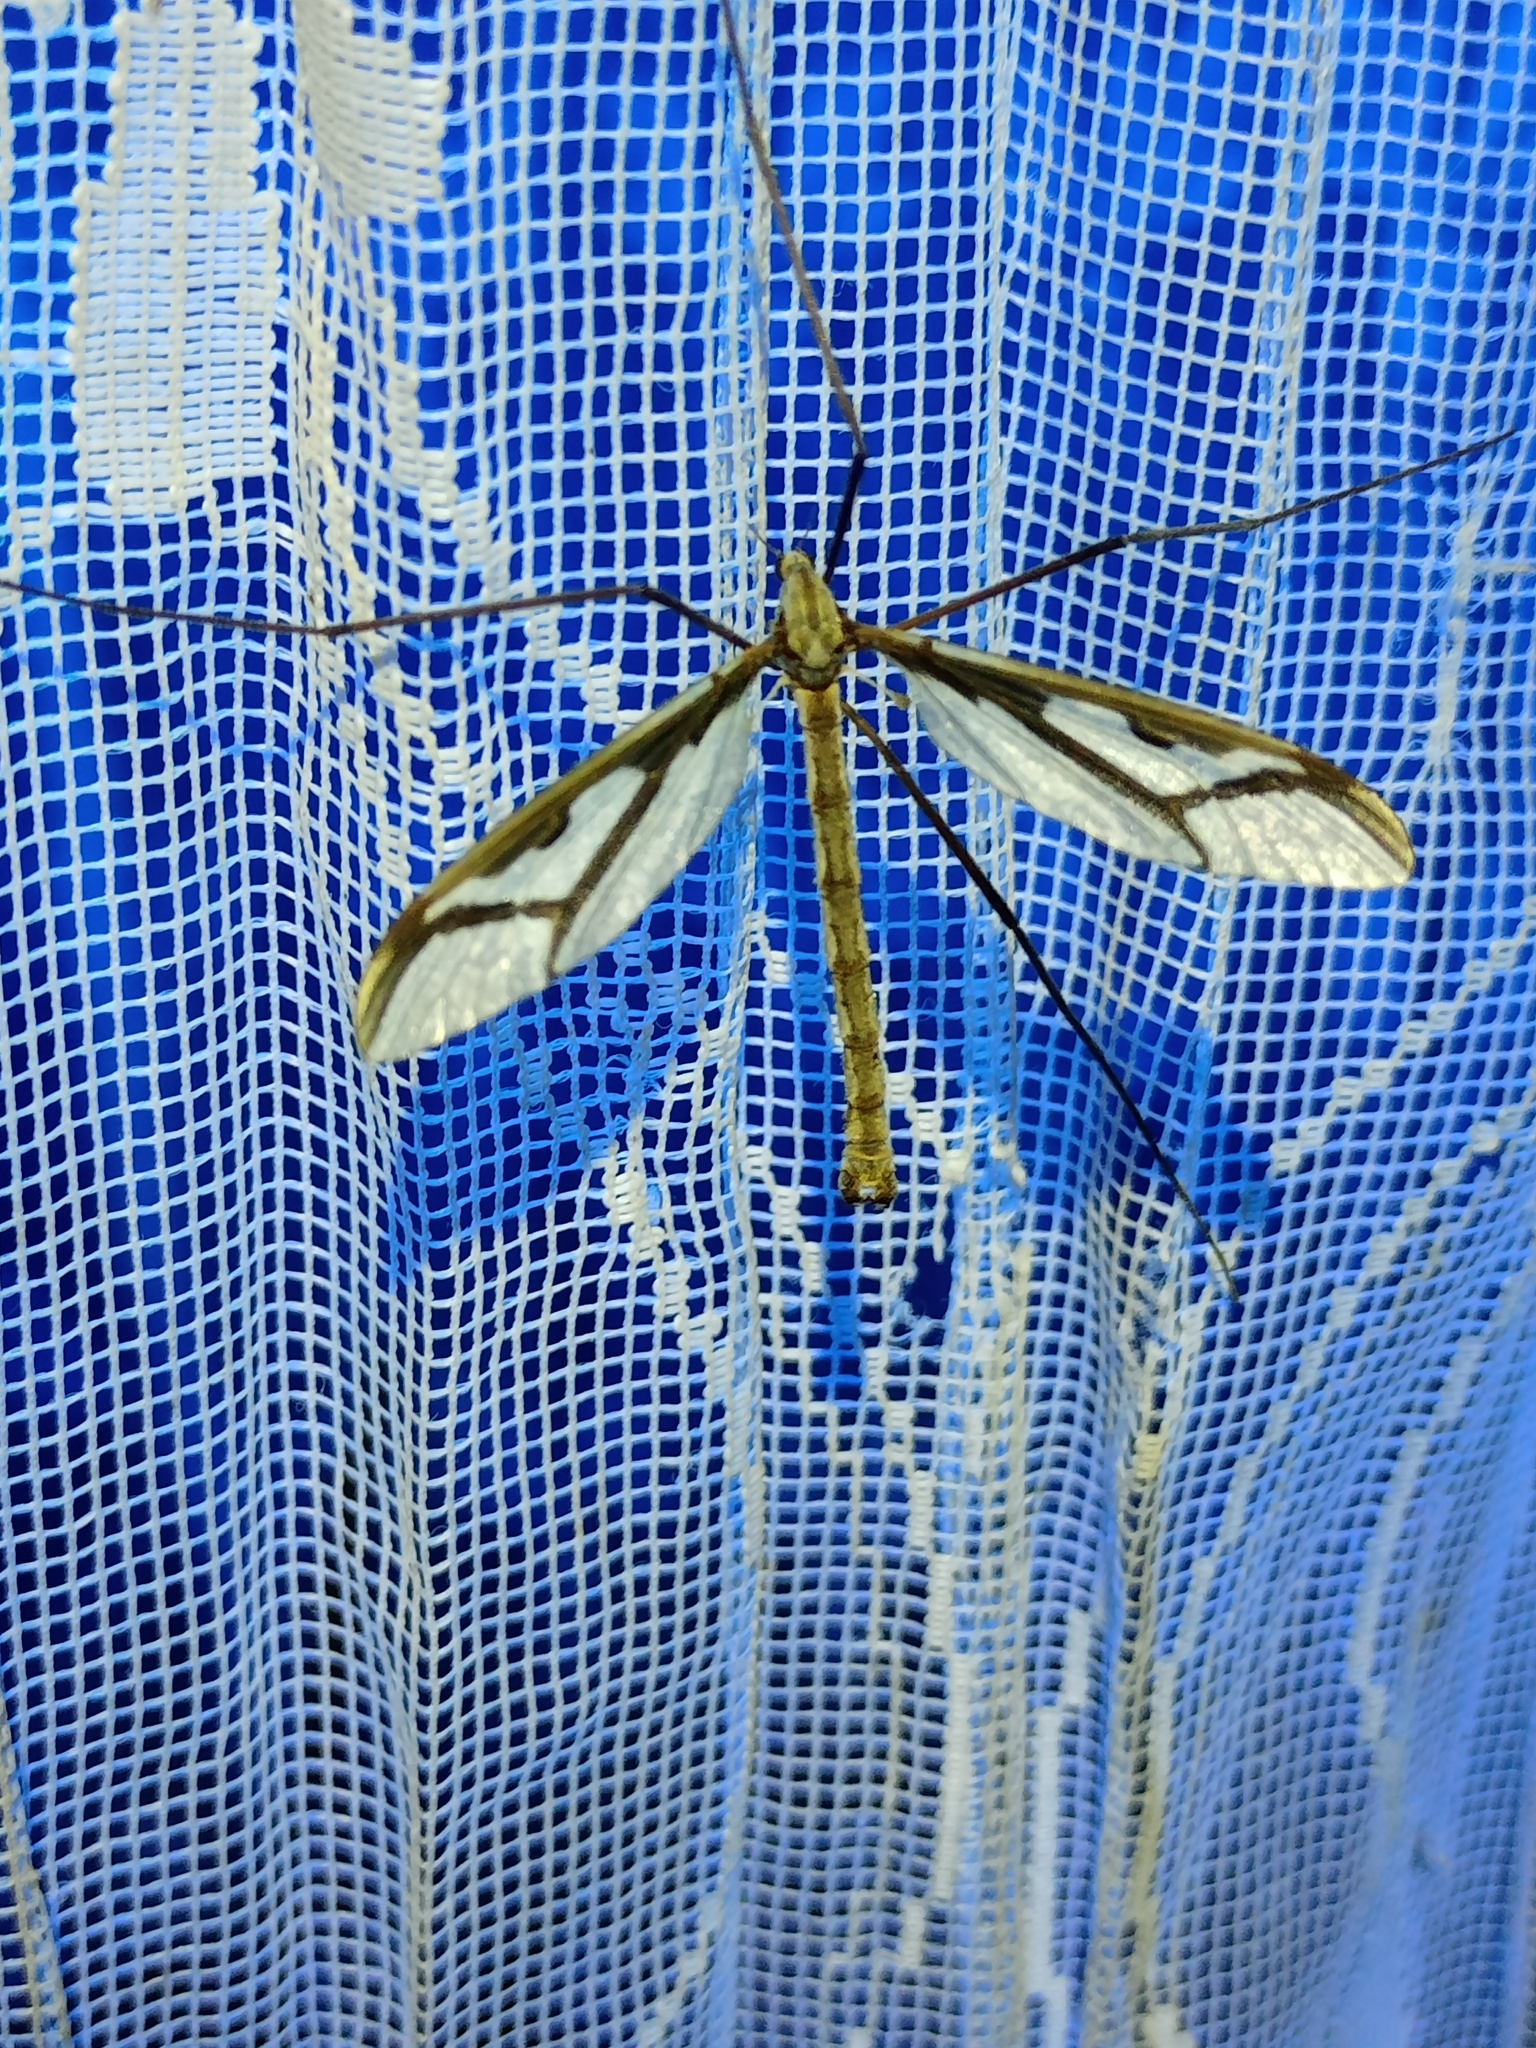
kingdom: Animalia
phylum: Arthropoda
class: Insecta
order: Diptera
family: Pediciidae
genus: Pedicia
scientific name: Pedicia rivosa
